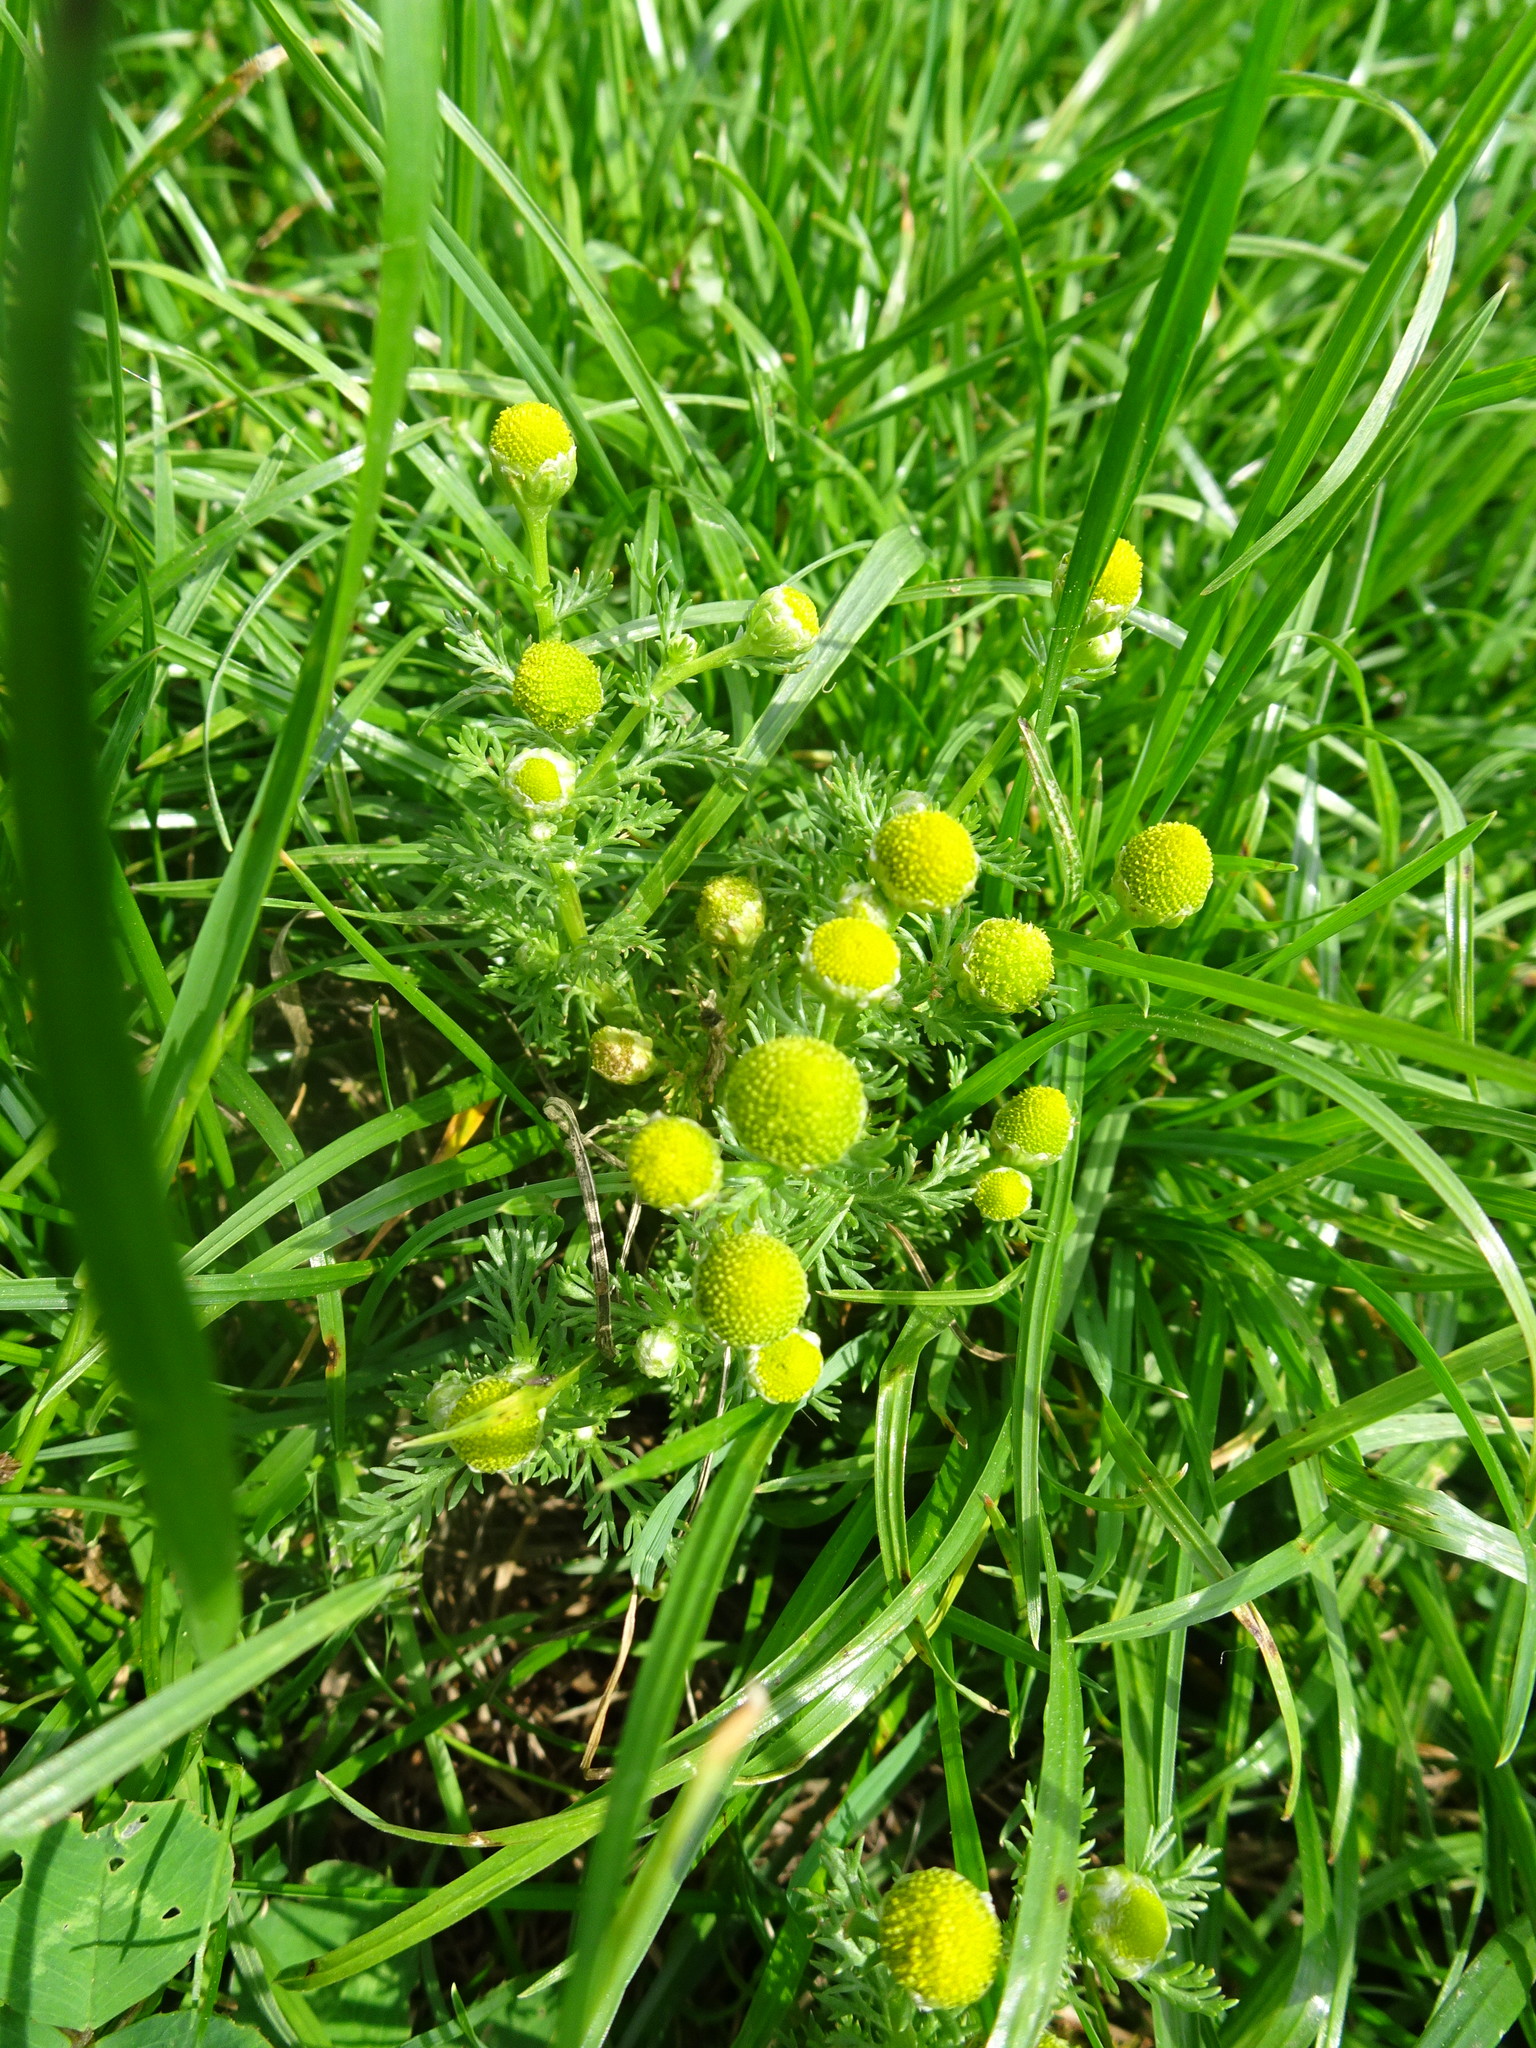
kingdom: Plantae
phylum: Tracheophyta
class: Magnoliopsida
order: Asterales
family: Asteraceae
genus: Matricaria
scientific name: Matricaria discoidea
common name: Disc mayweed
